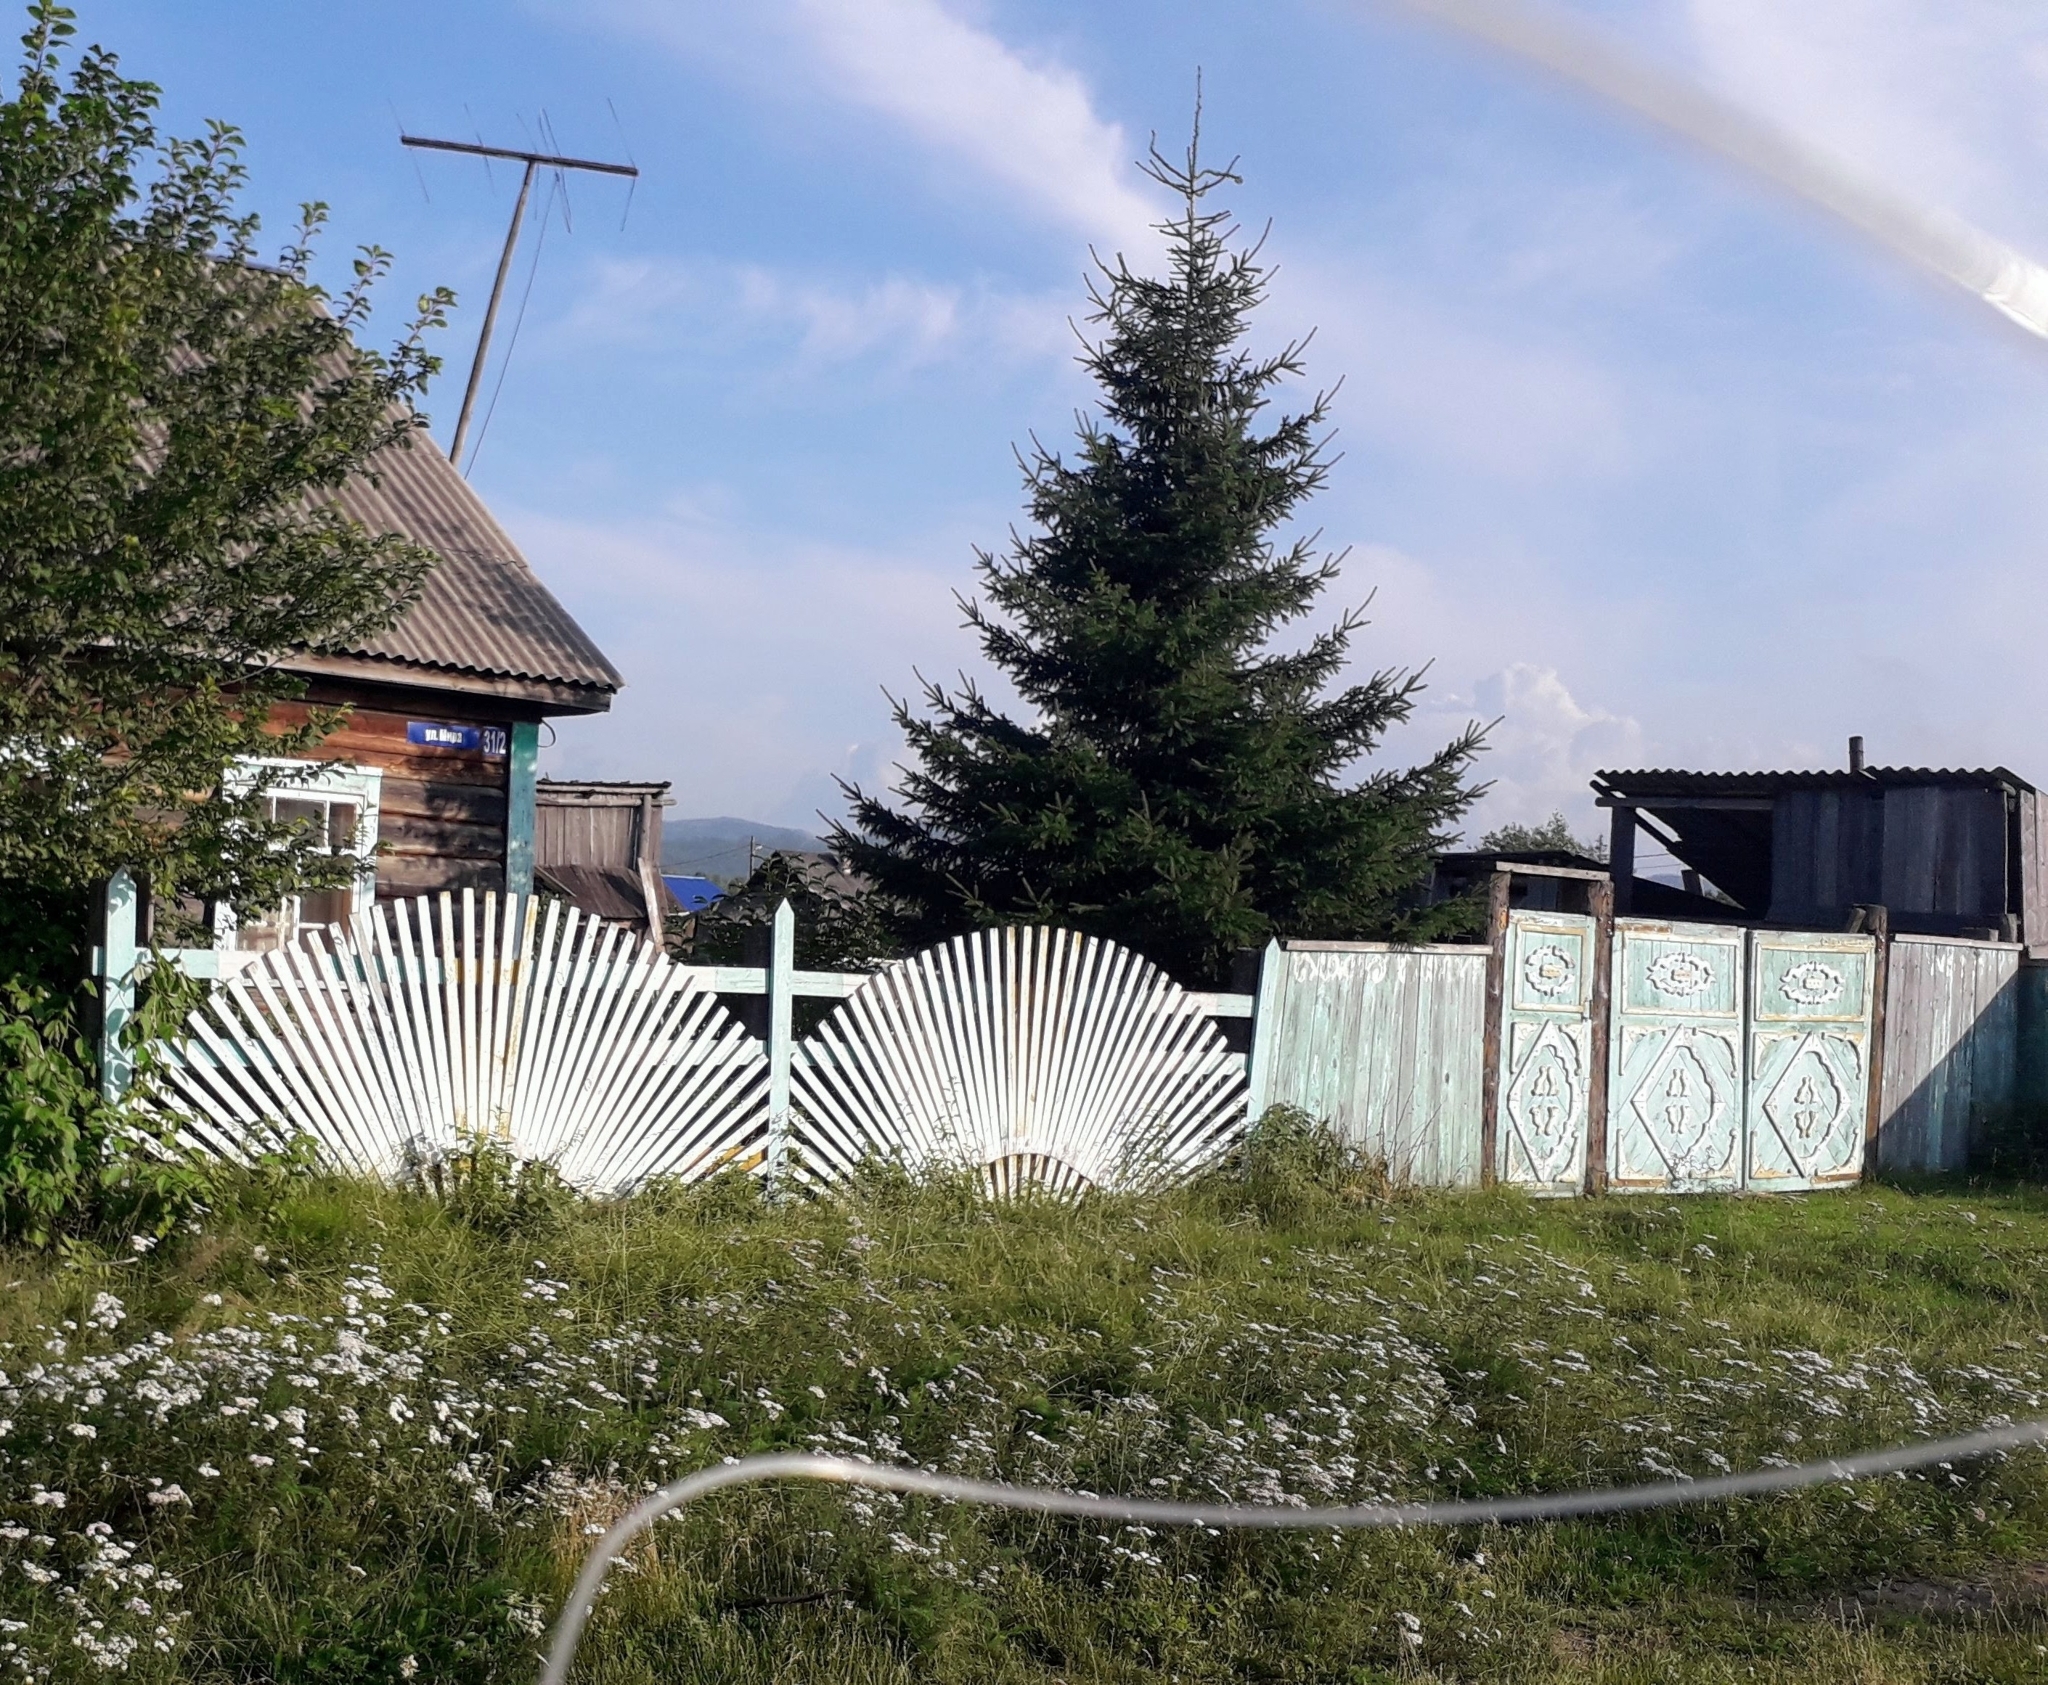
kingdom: Plantae
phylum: Tracheophyta
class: Pinopsida
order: Pinales
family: Pinaceae
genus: Picea
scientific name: Picea obovata
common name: Siberian spruce
